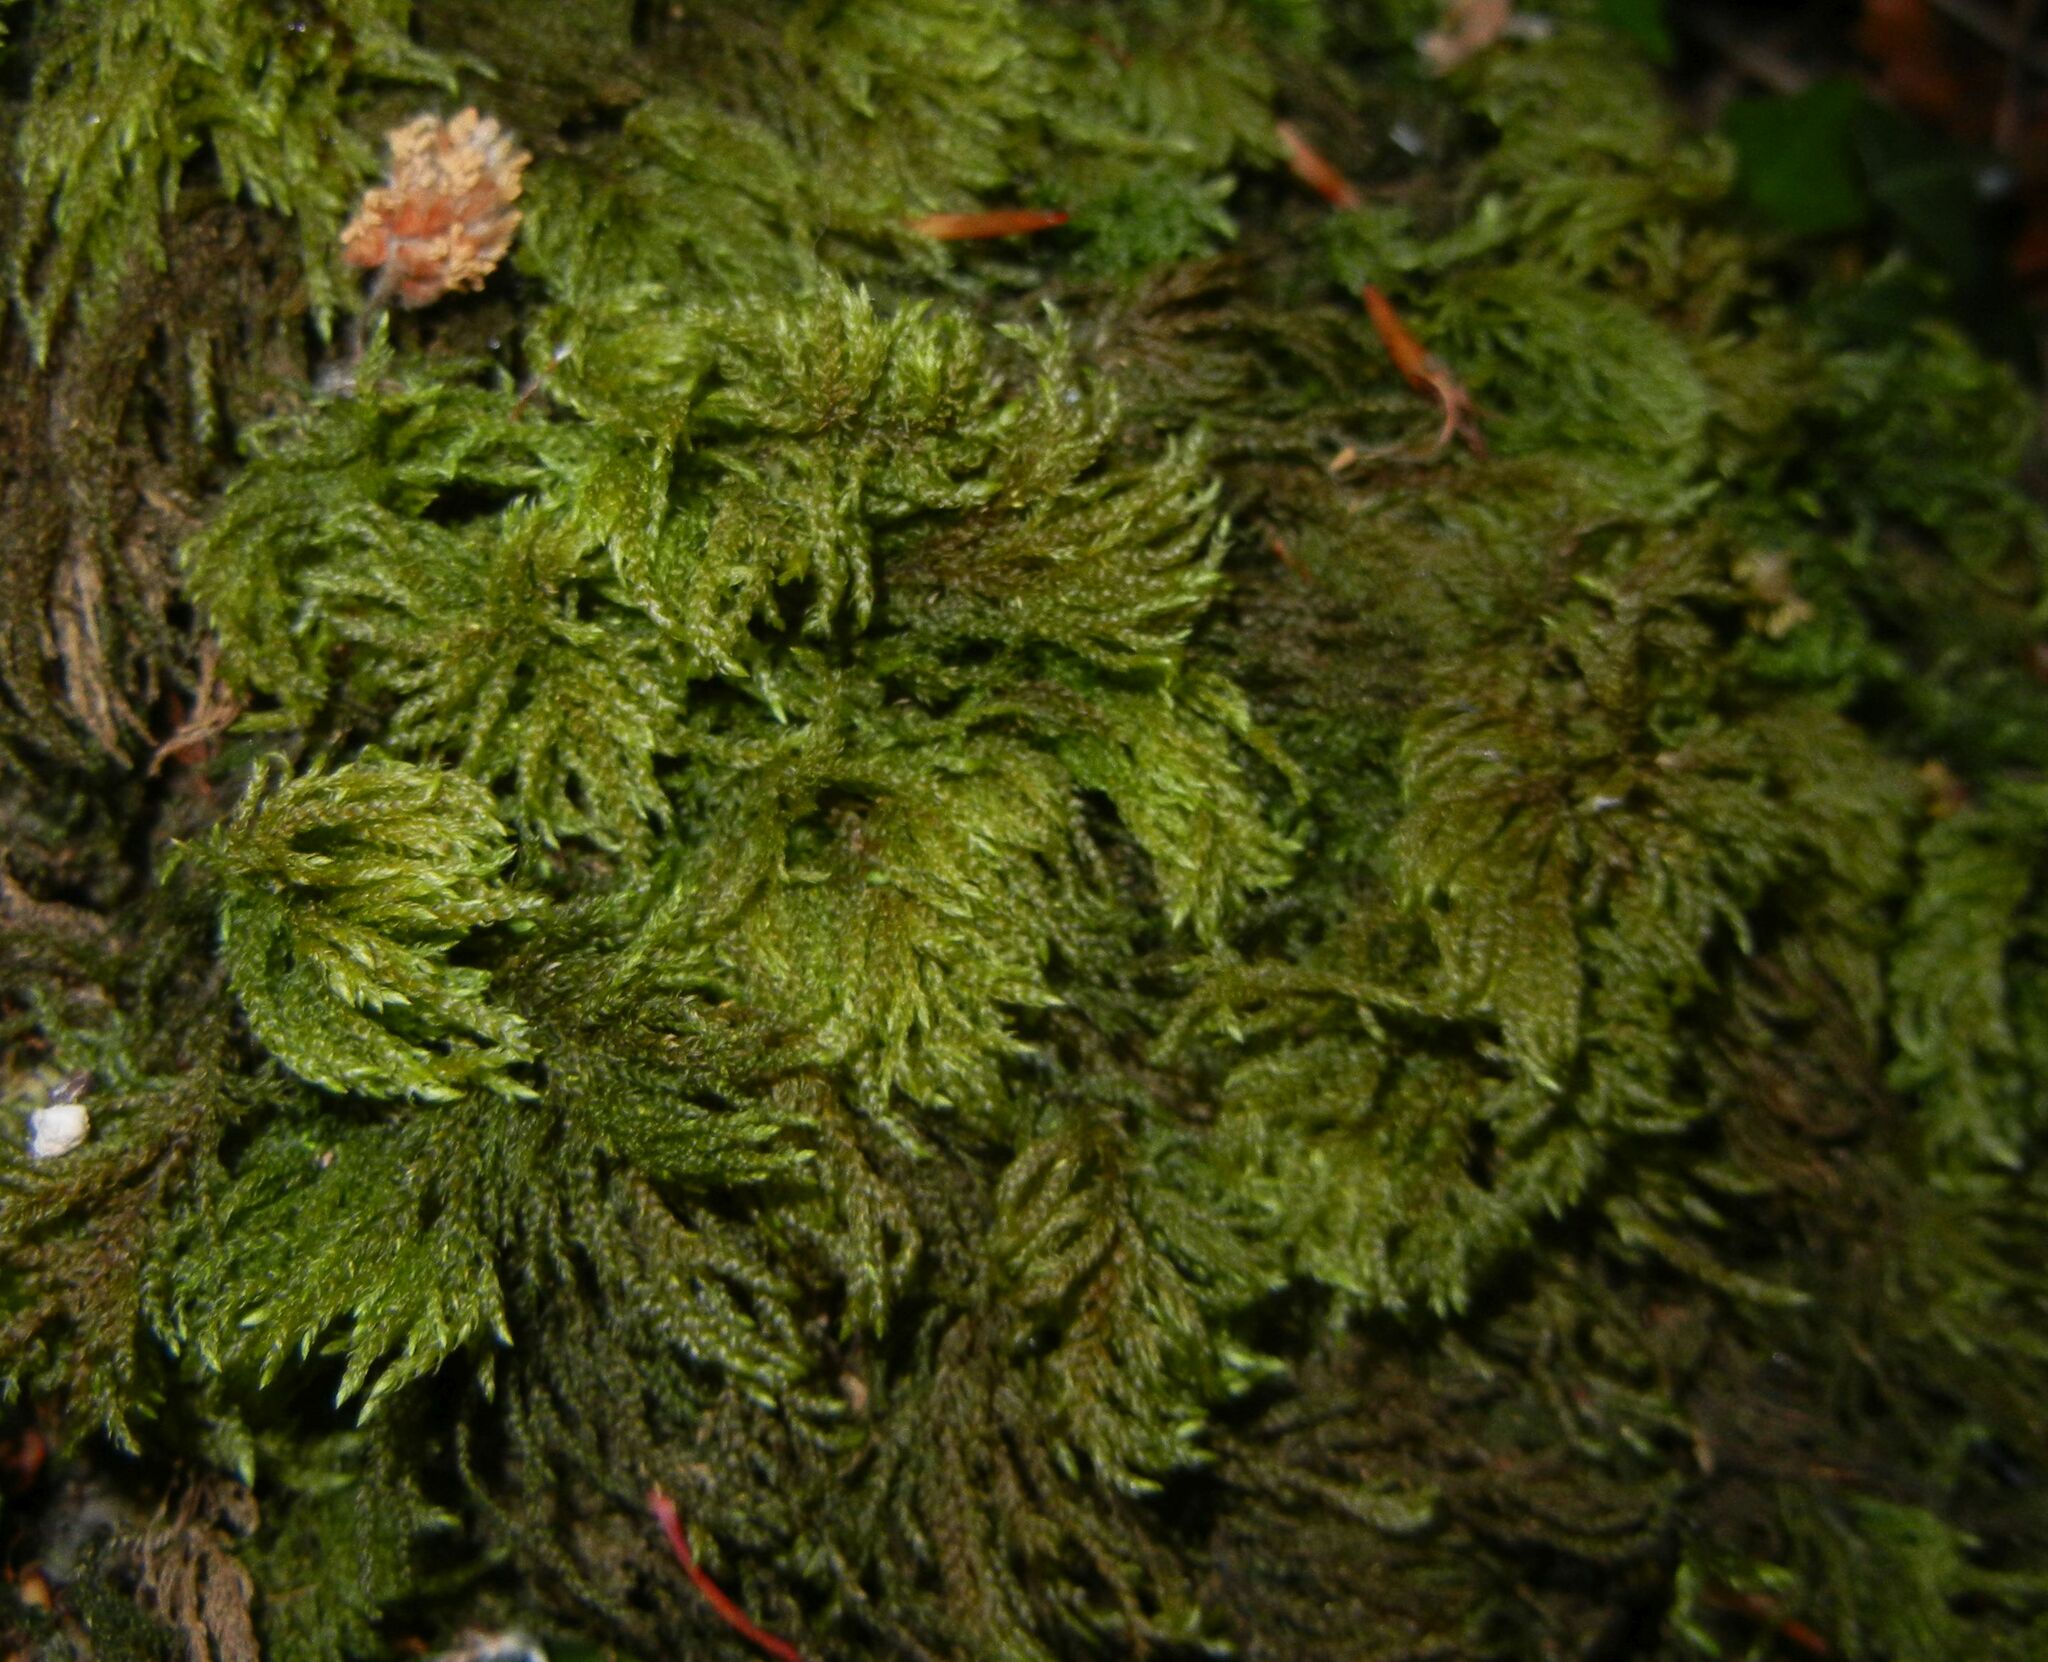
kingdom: Plantae
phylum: Bryophyta
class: Bryopsida
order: Hypnales
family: Neckeraceae
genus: Thamnobryum
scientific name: Thamnobryum alopecurum
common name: Fox-tail feather-moss
